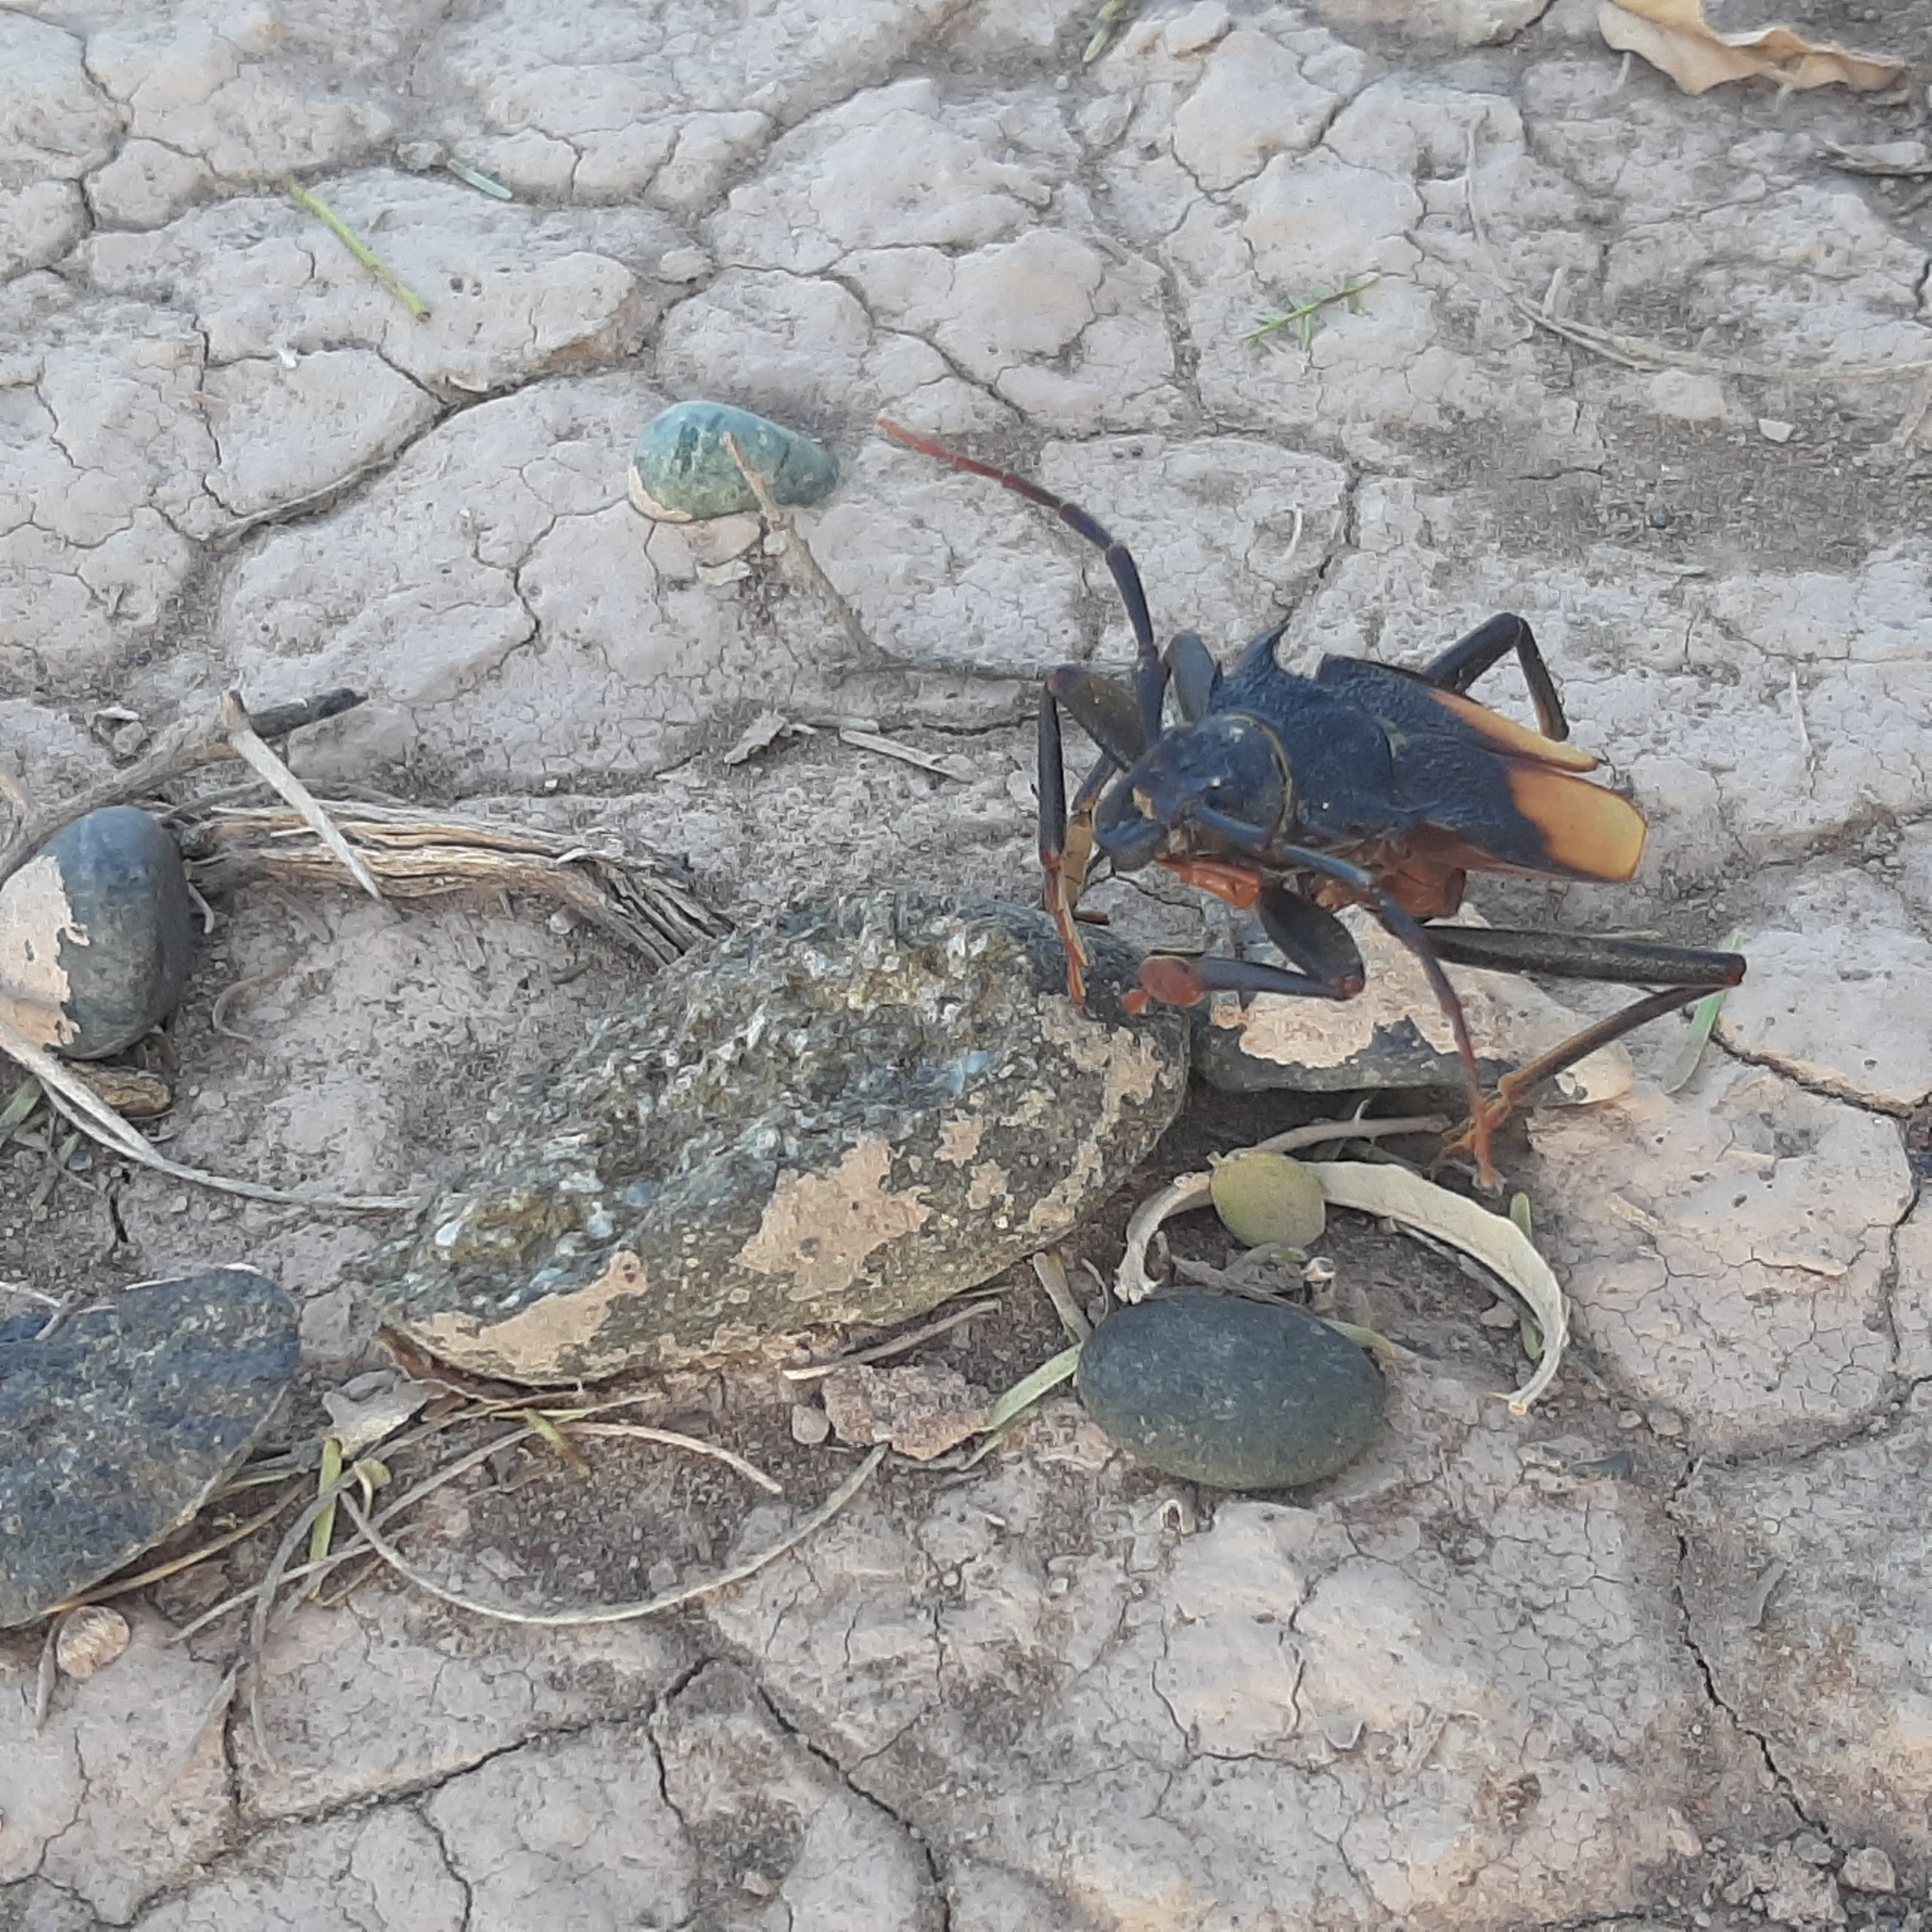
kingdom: Animalia
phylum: Arthropoda
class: Insecta
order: Coleoptera
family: Cerambycidae
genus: Apterocaulus
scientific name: Apterocaulus heterogama
